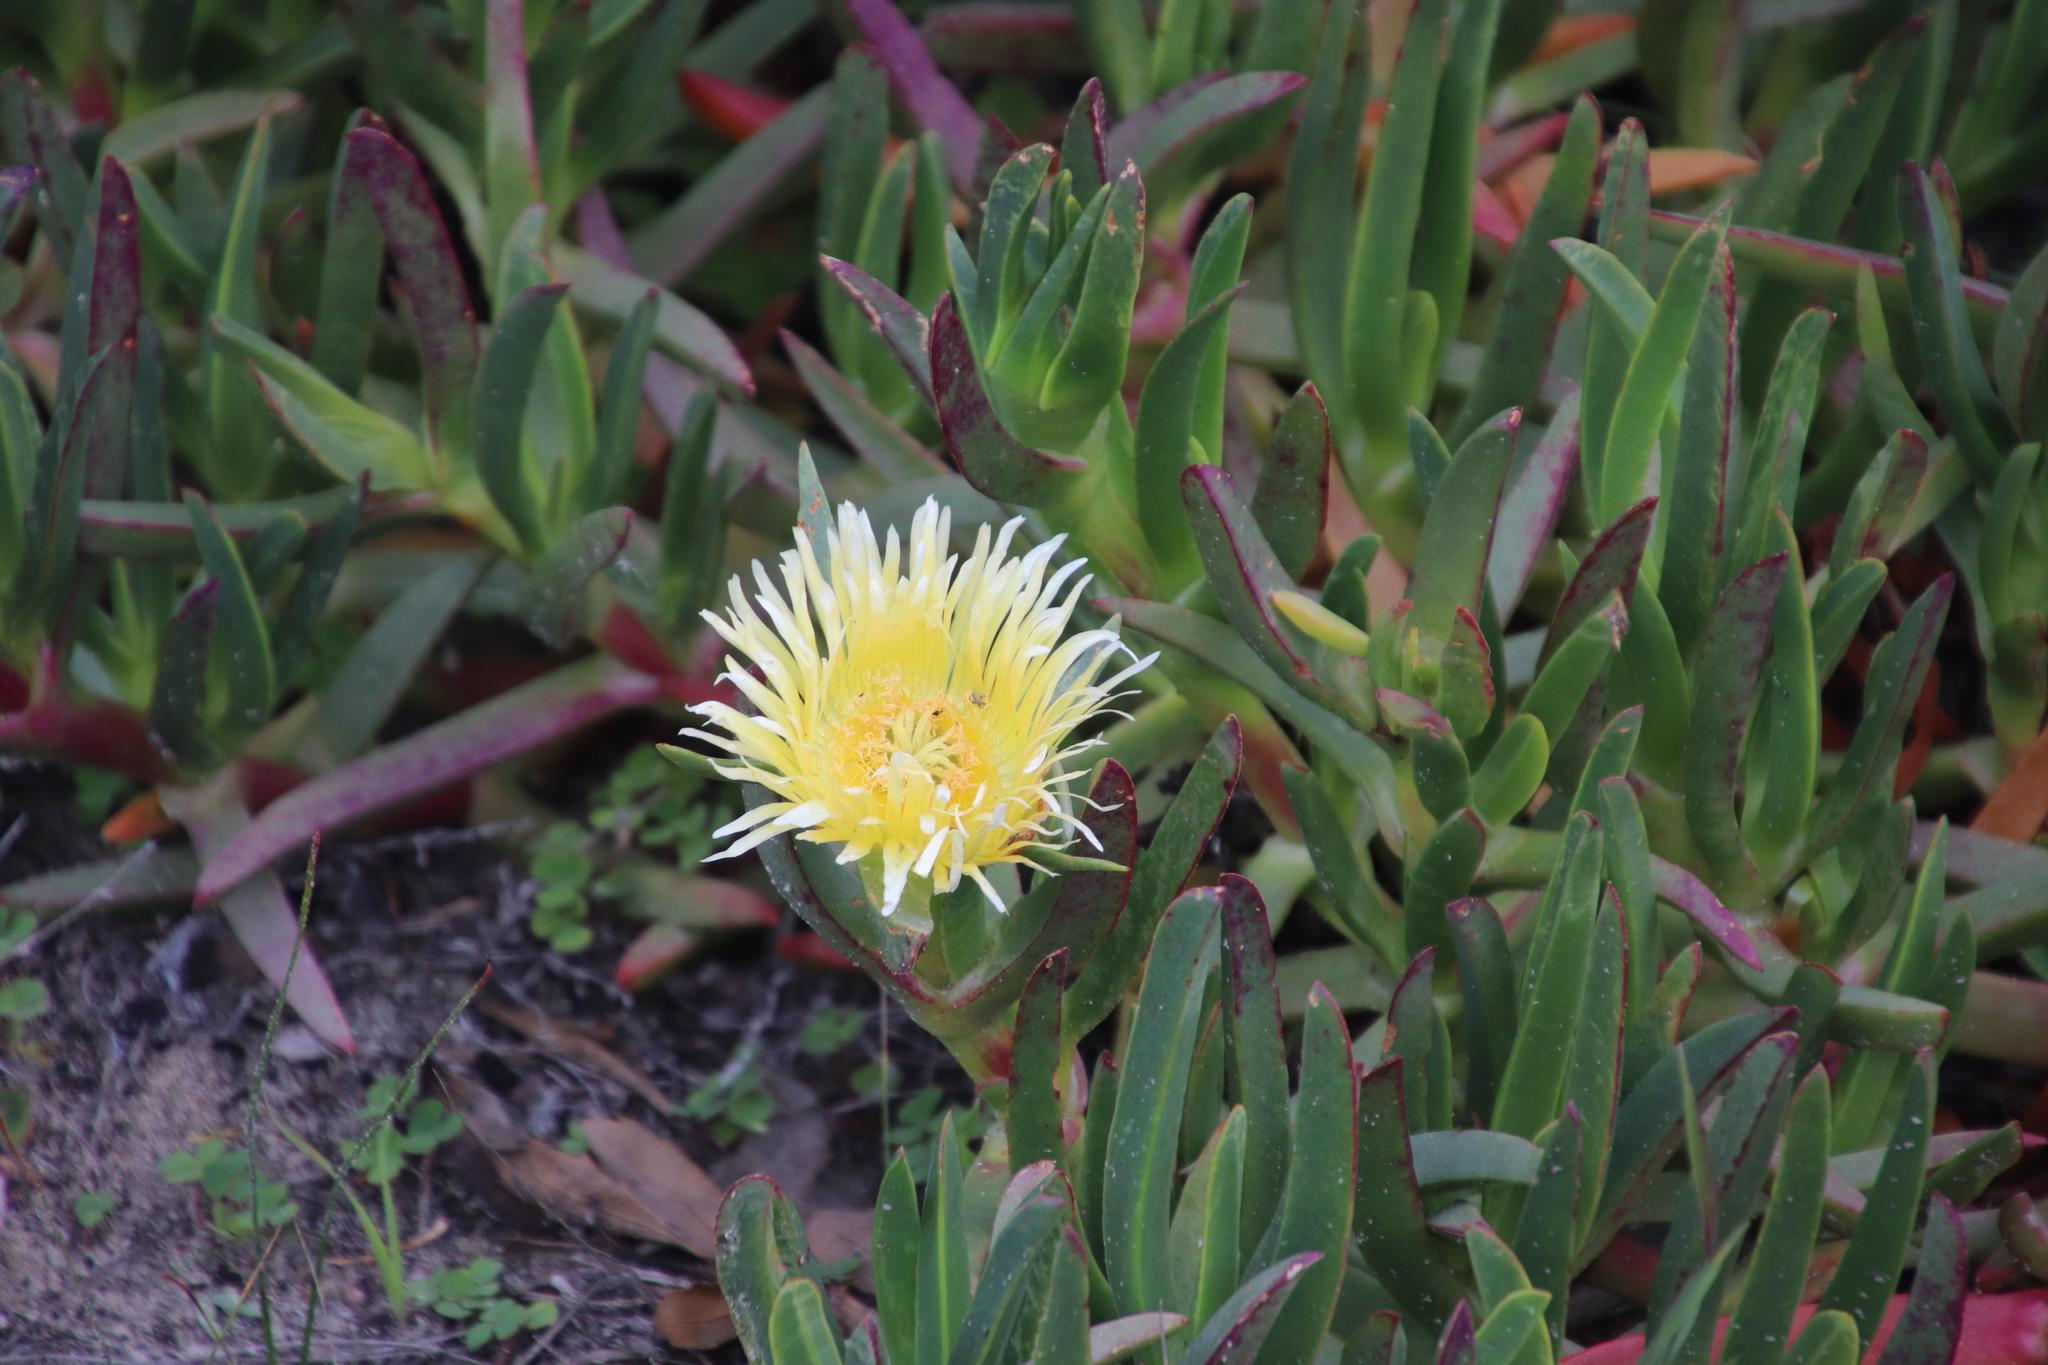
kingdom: Plantae
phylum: Tracheophyta
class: Magnoliopsida
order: Caryophyllales
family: Aizoaceae
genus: Carpobrotus
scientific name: Carpobrotus edulis
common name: Hottentot-fig
